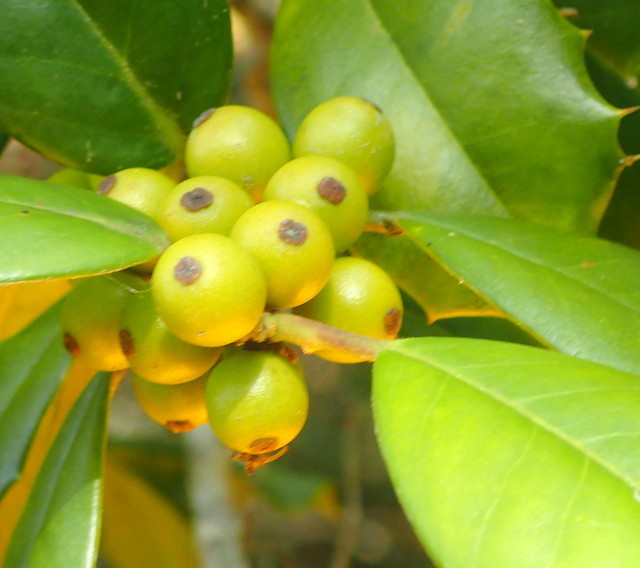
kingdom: Plantae
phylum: Tracheophyta
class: Magnoliopsida
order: Aquifoliales
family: Aquifoliaceae
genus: Ilex
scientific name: Ilex opaca
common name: American holly
